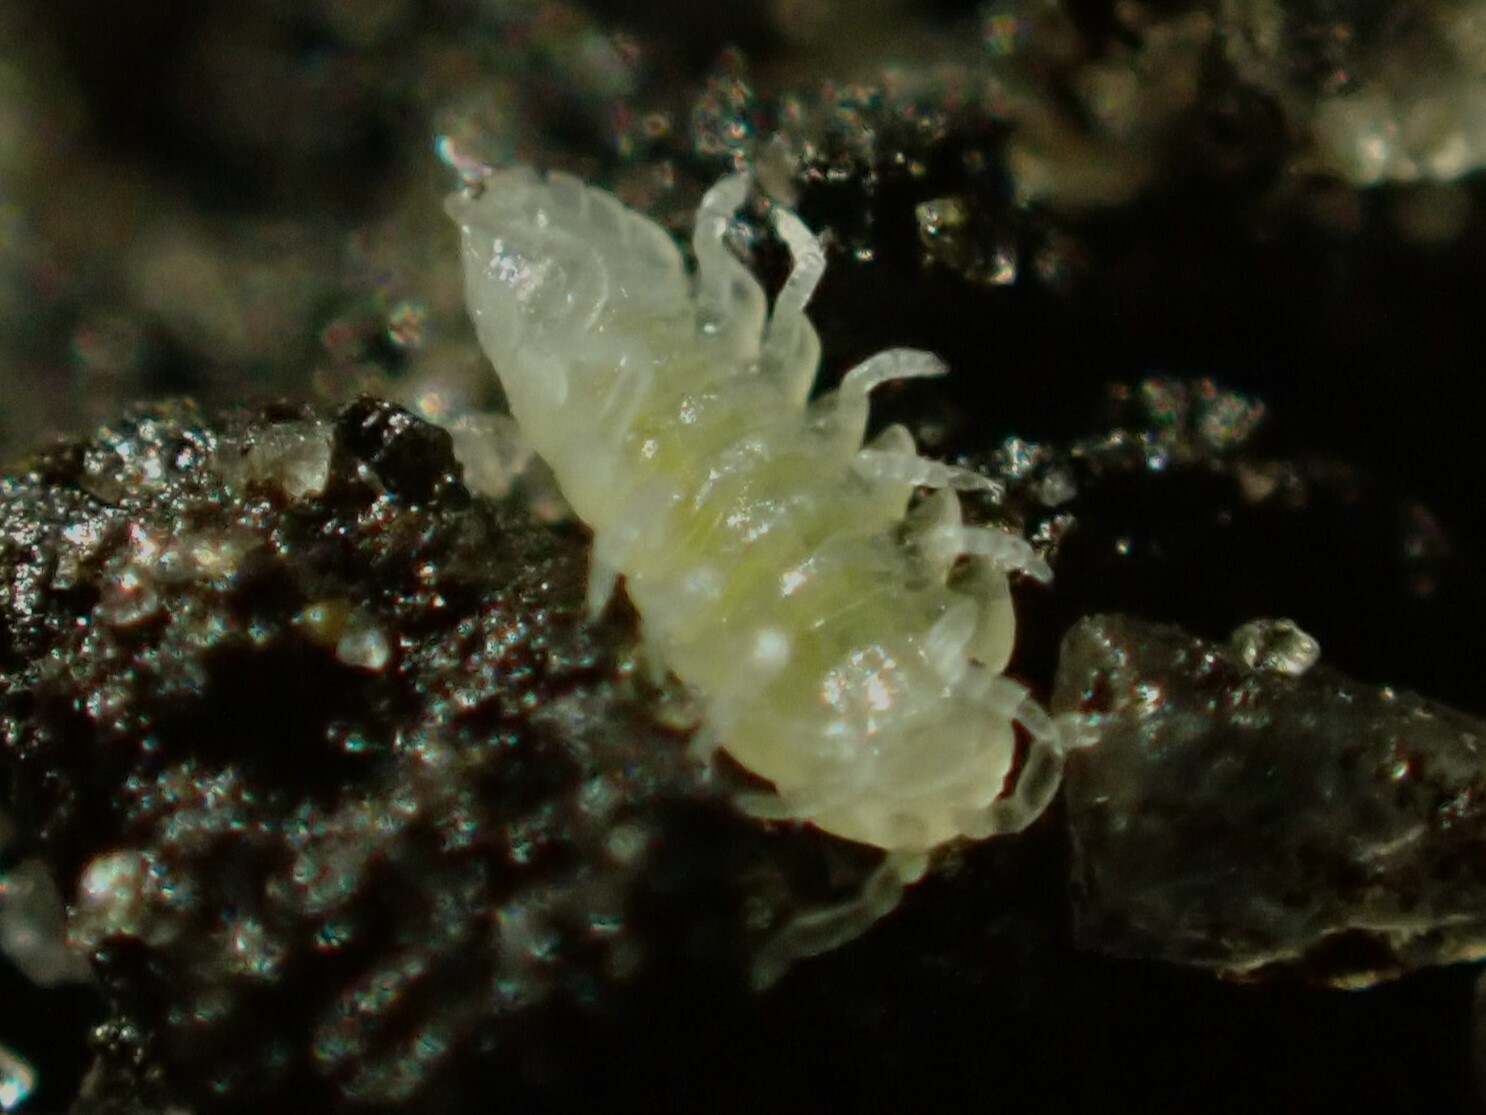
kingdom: Animalia
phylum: Arthropoda
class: Malacostraca
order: Isopoda
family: Armadillidiidae
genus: Armadillidium
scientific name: Armadillidium vulgare
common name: Common pill woodlouse
